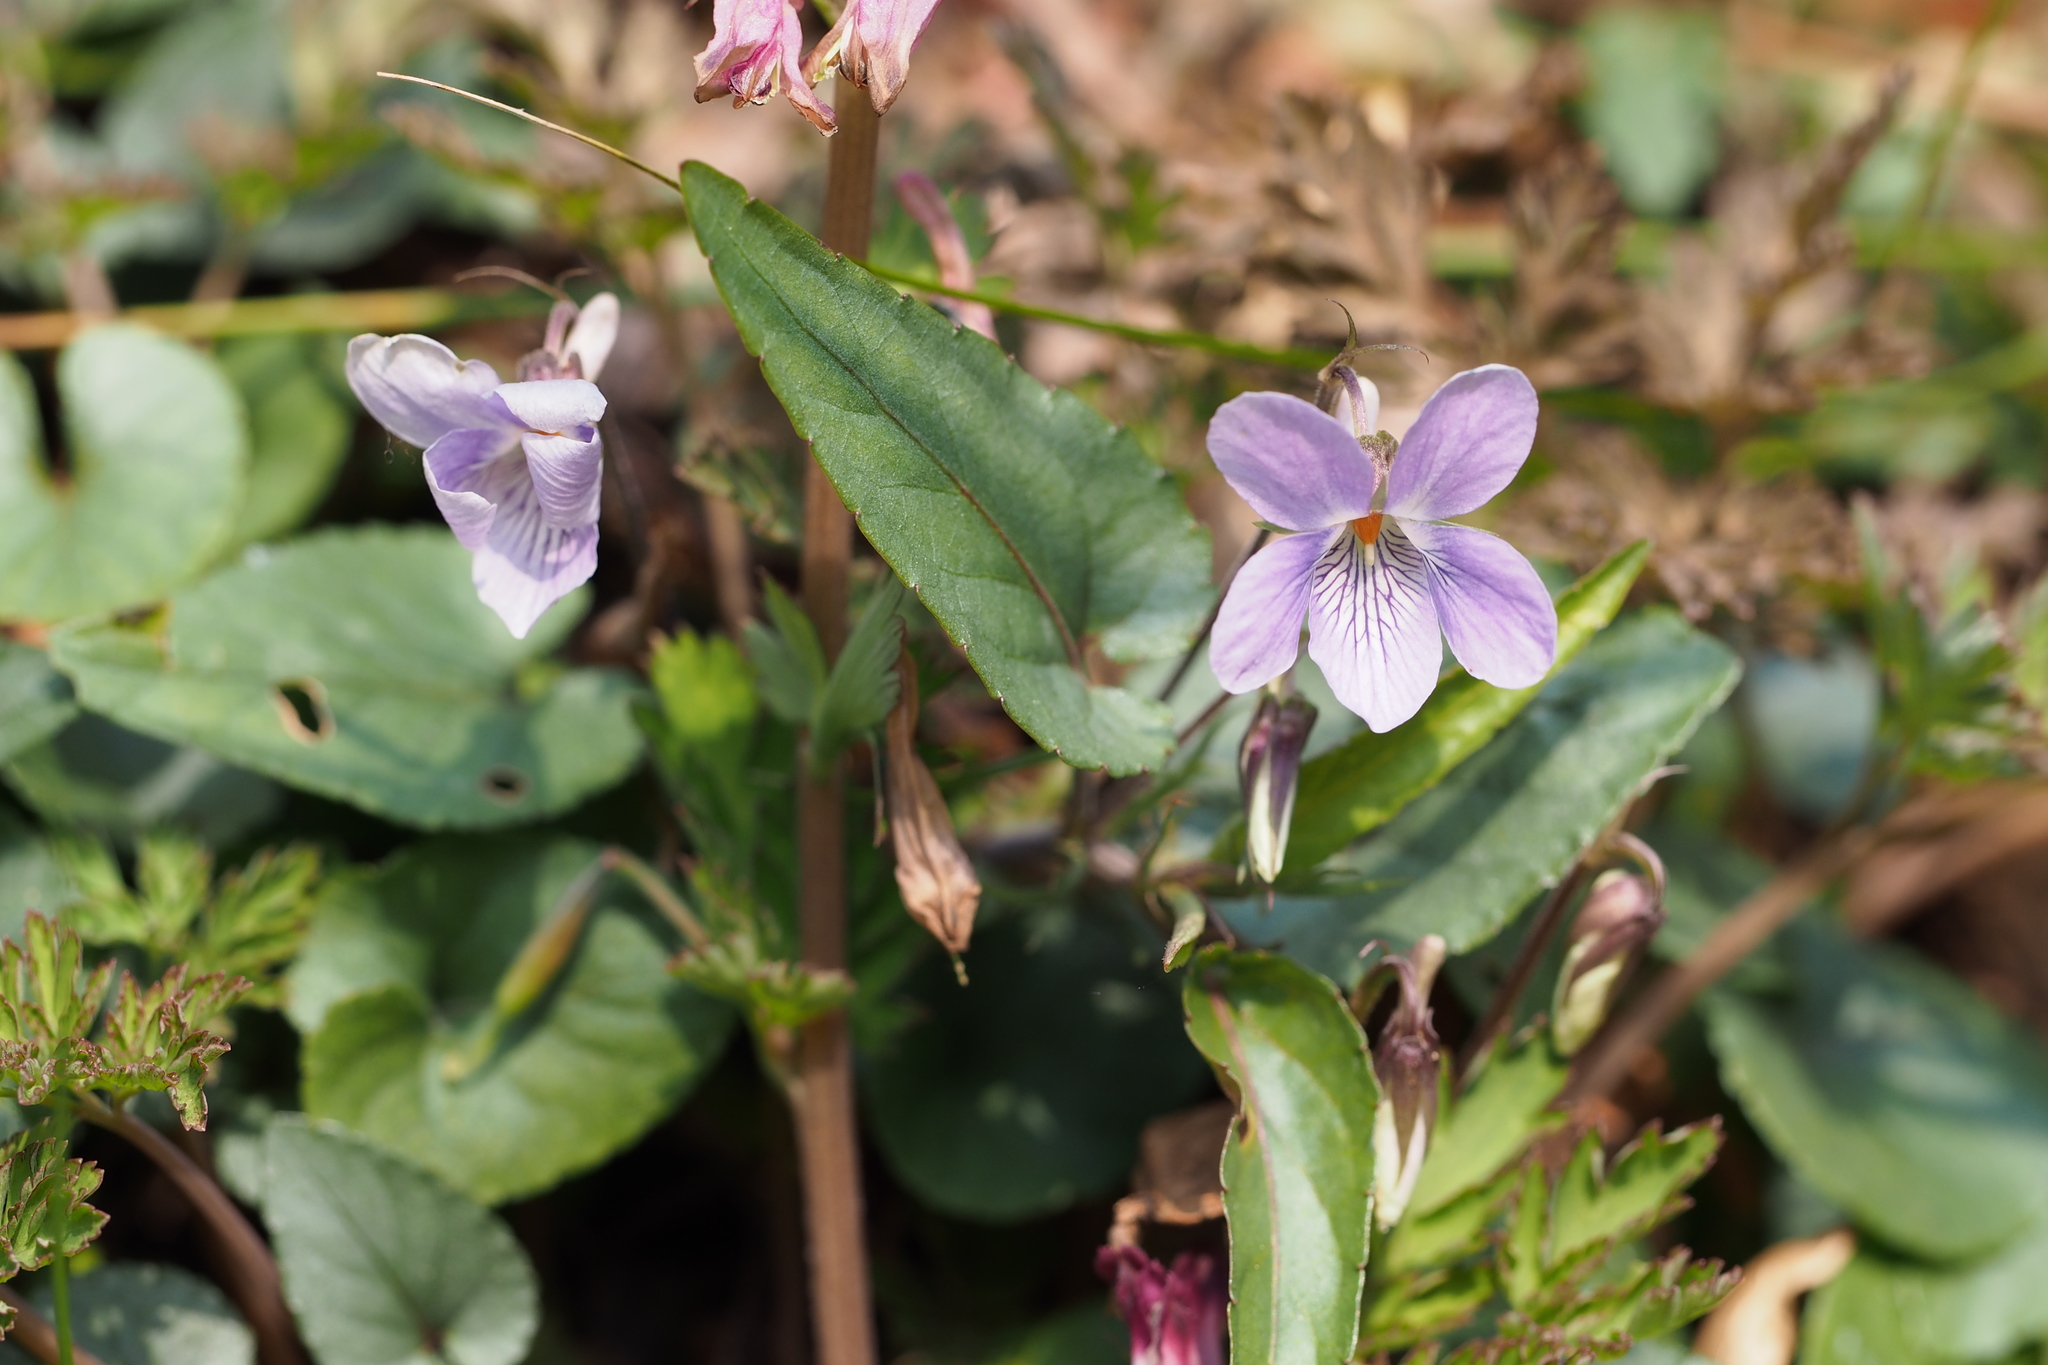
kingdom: Plantae
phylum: Tracheophyta
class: Magnoliopsida
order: Malpighiales
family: Violaceae
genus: Viola
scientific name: Viola ovatooblonga
